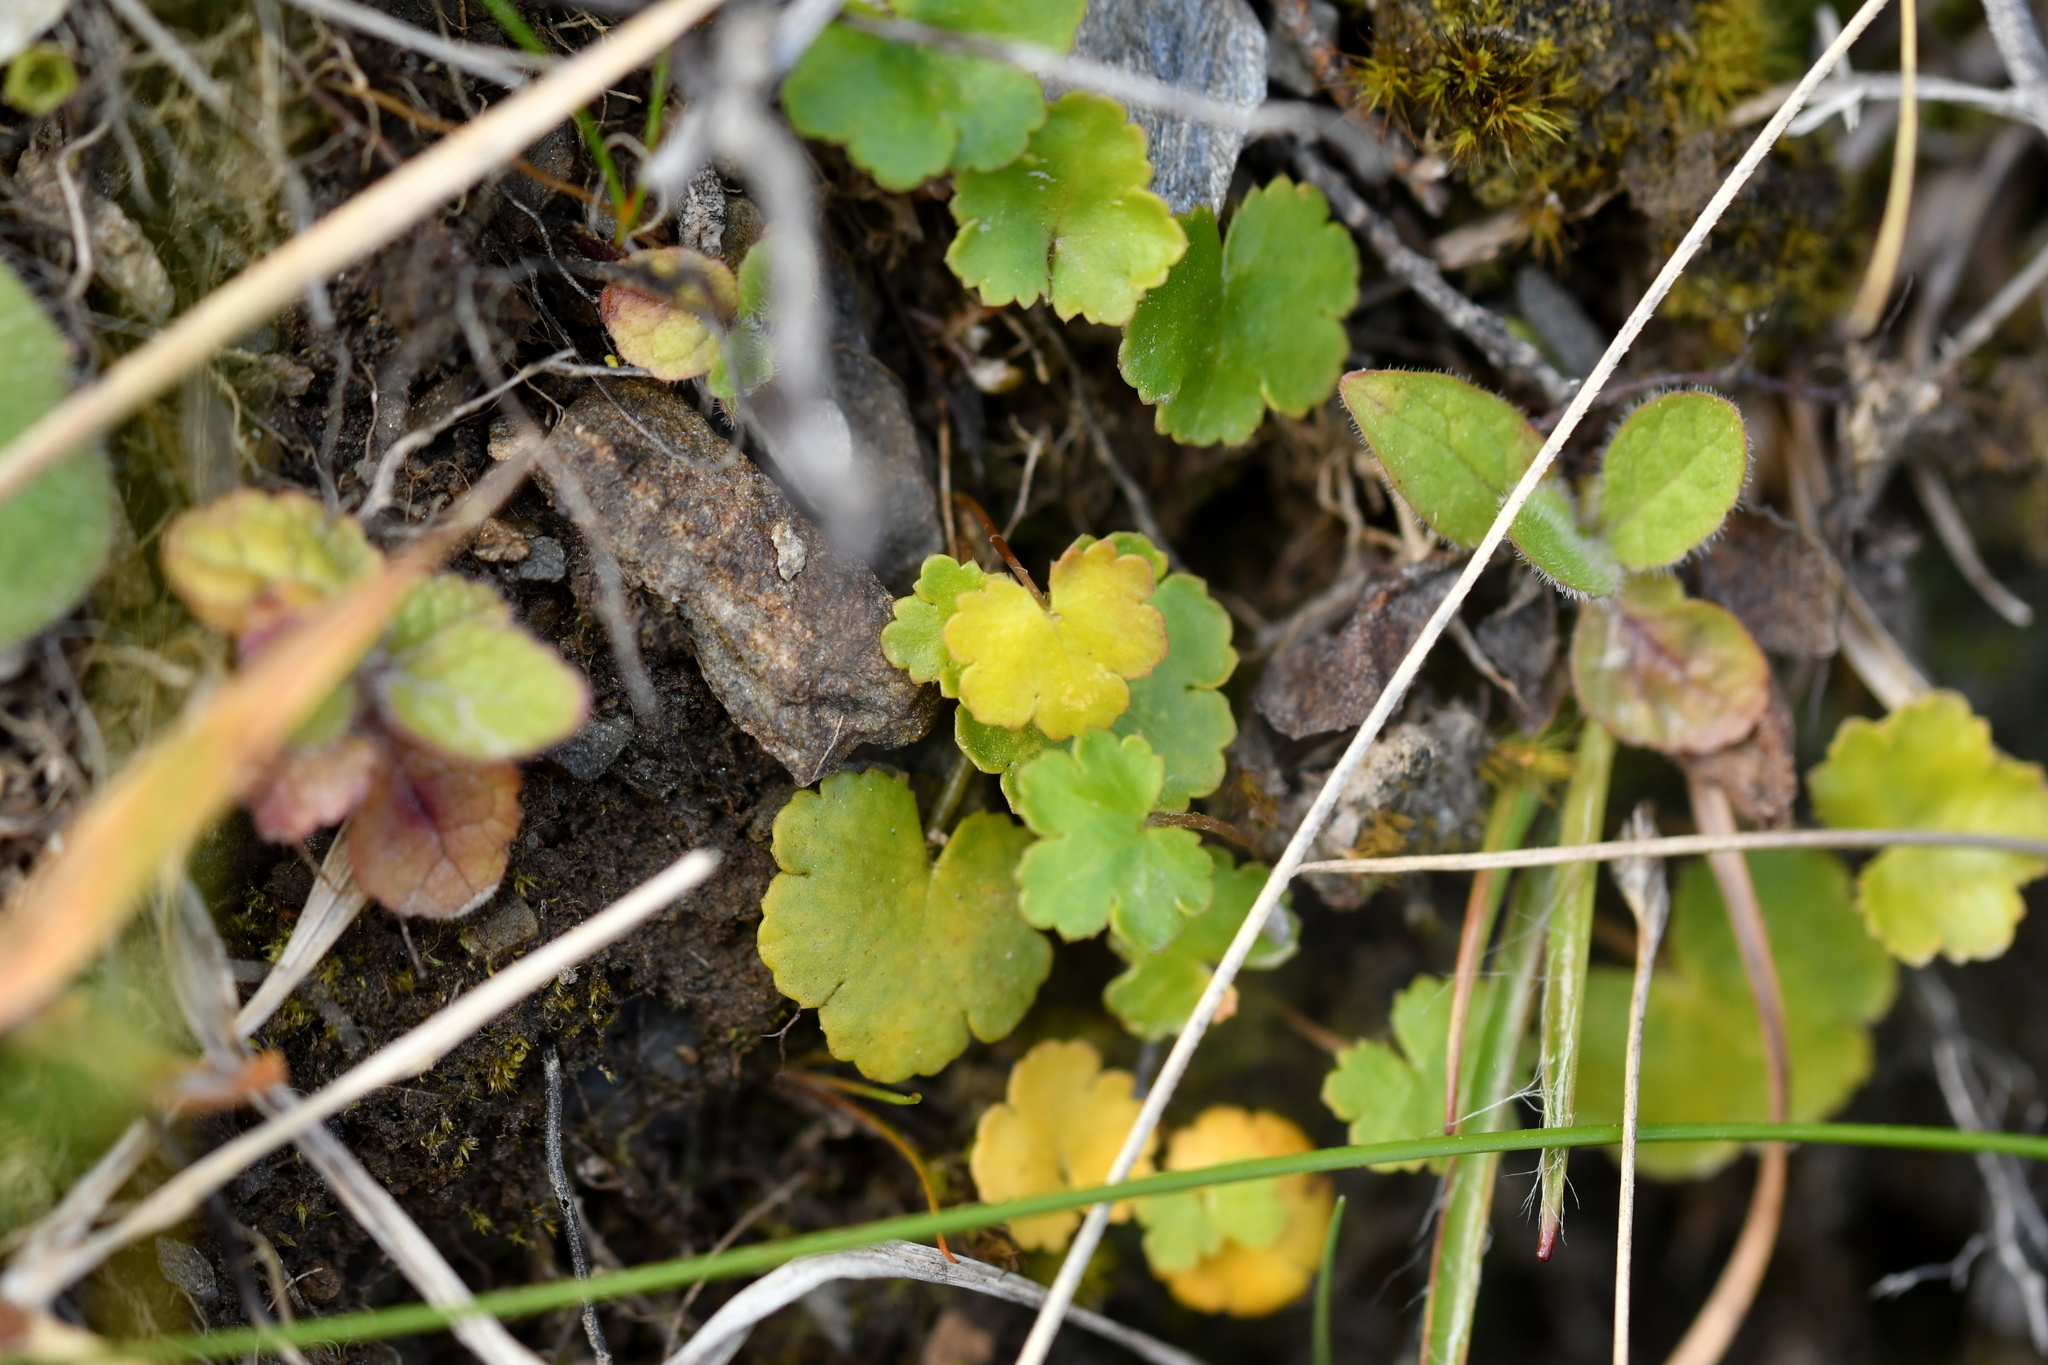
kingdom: Plantae
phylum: Tracheophyta
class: Magnoliopsida
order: Apiales
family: Araliaceae
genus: Hydrocotyle
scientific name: Hydrocotyle novae-zeelandiae
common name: New zealand pennywort
